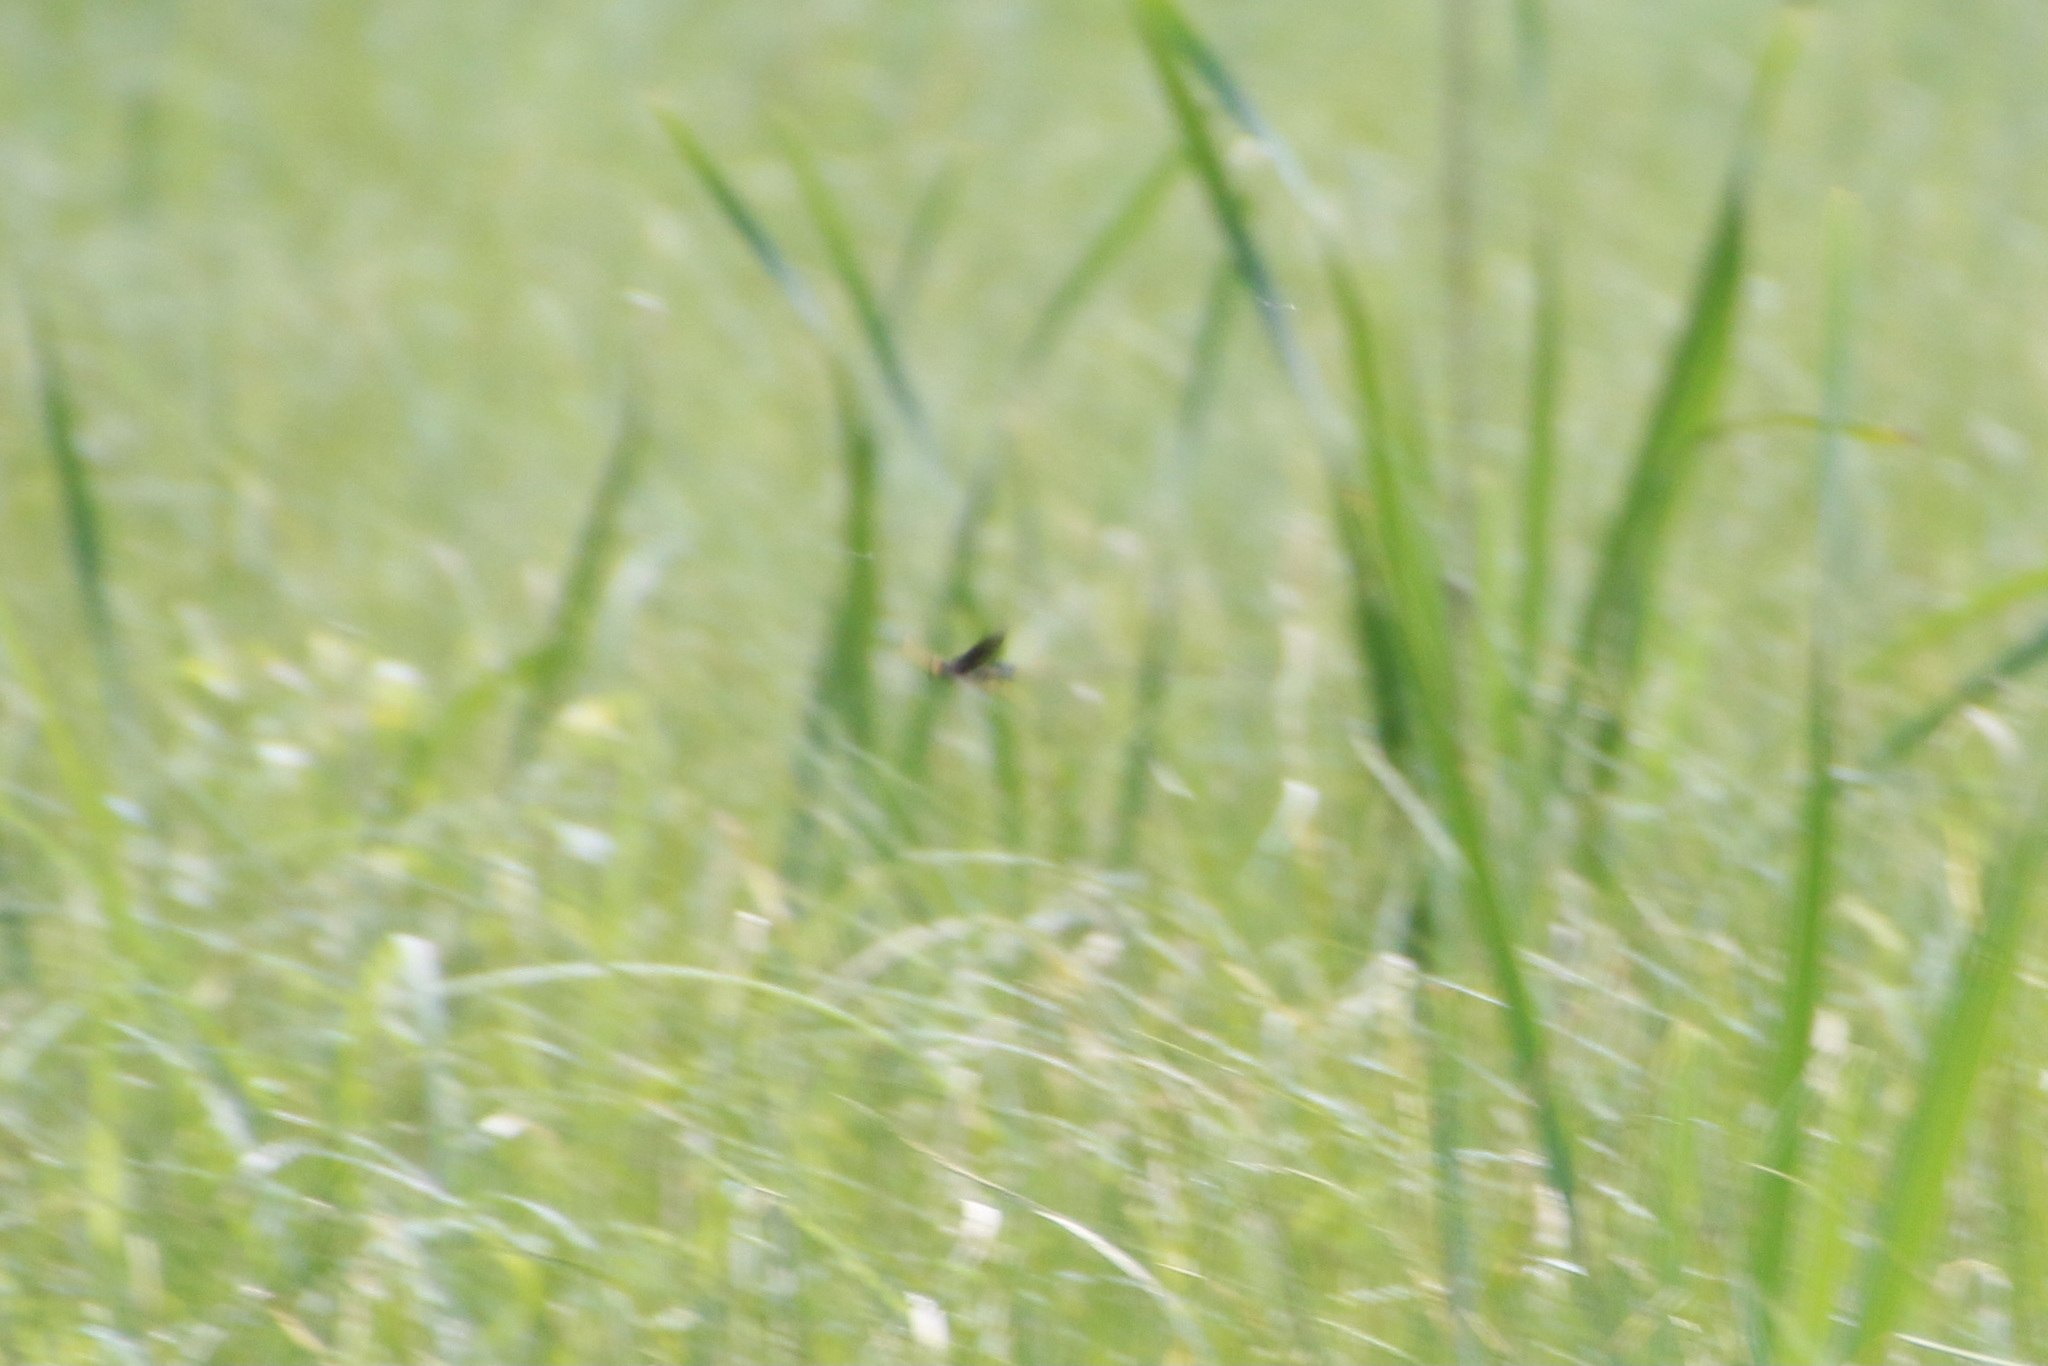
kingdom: Animalia
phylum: Arthropoda
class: Insecta
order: Hymenoptera
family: Ichneumonidae
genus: Megarhyssa
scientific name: Megarhyssa atrata
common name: Black giant ichneumonid wasp
